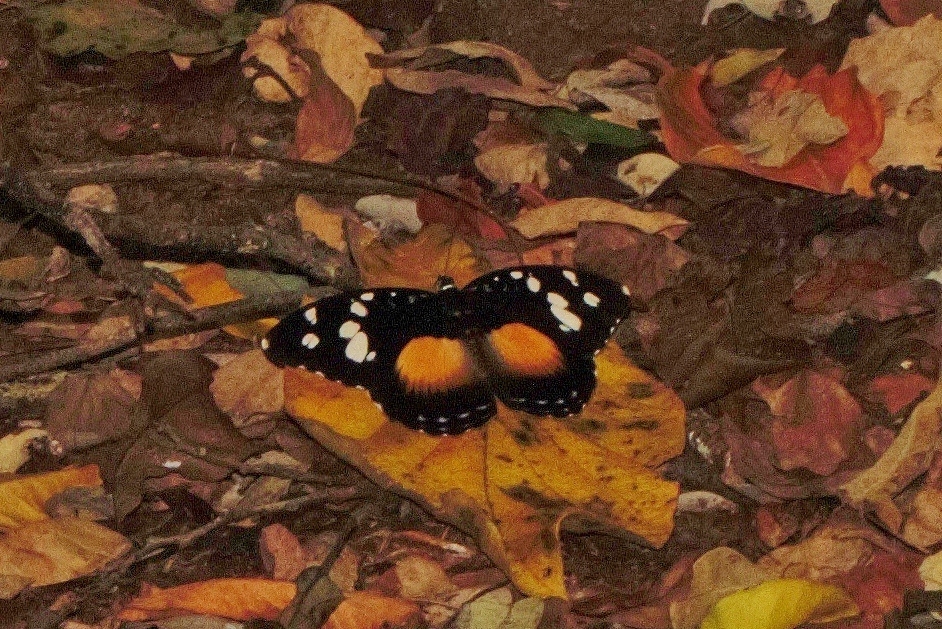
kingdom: Animalia
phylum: Arthropoda
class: Insecta
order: Lepidoptera
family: Nymphalidae
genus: Aterica
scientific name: Aterica galene
